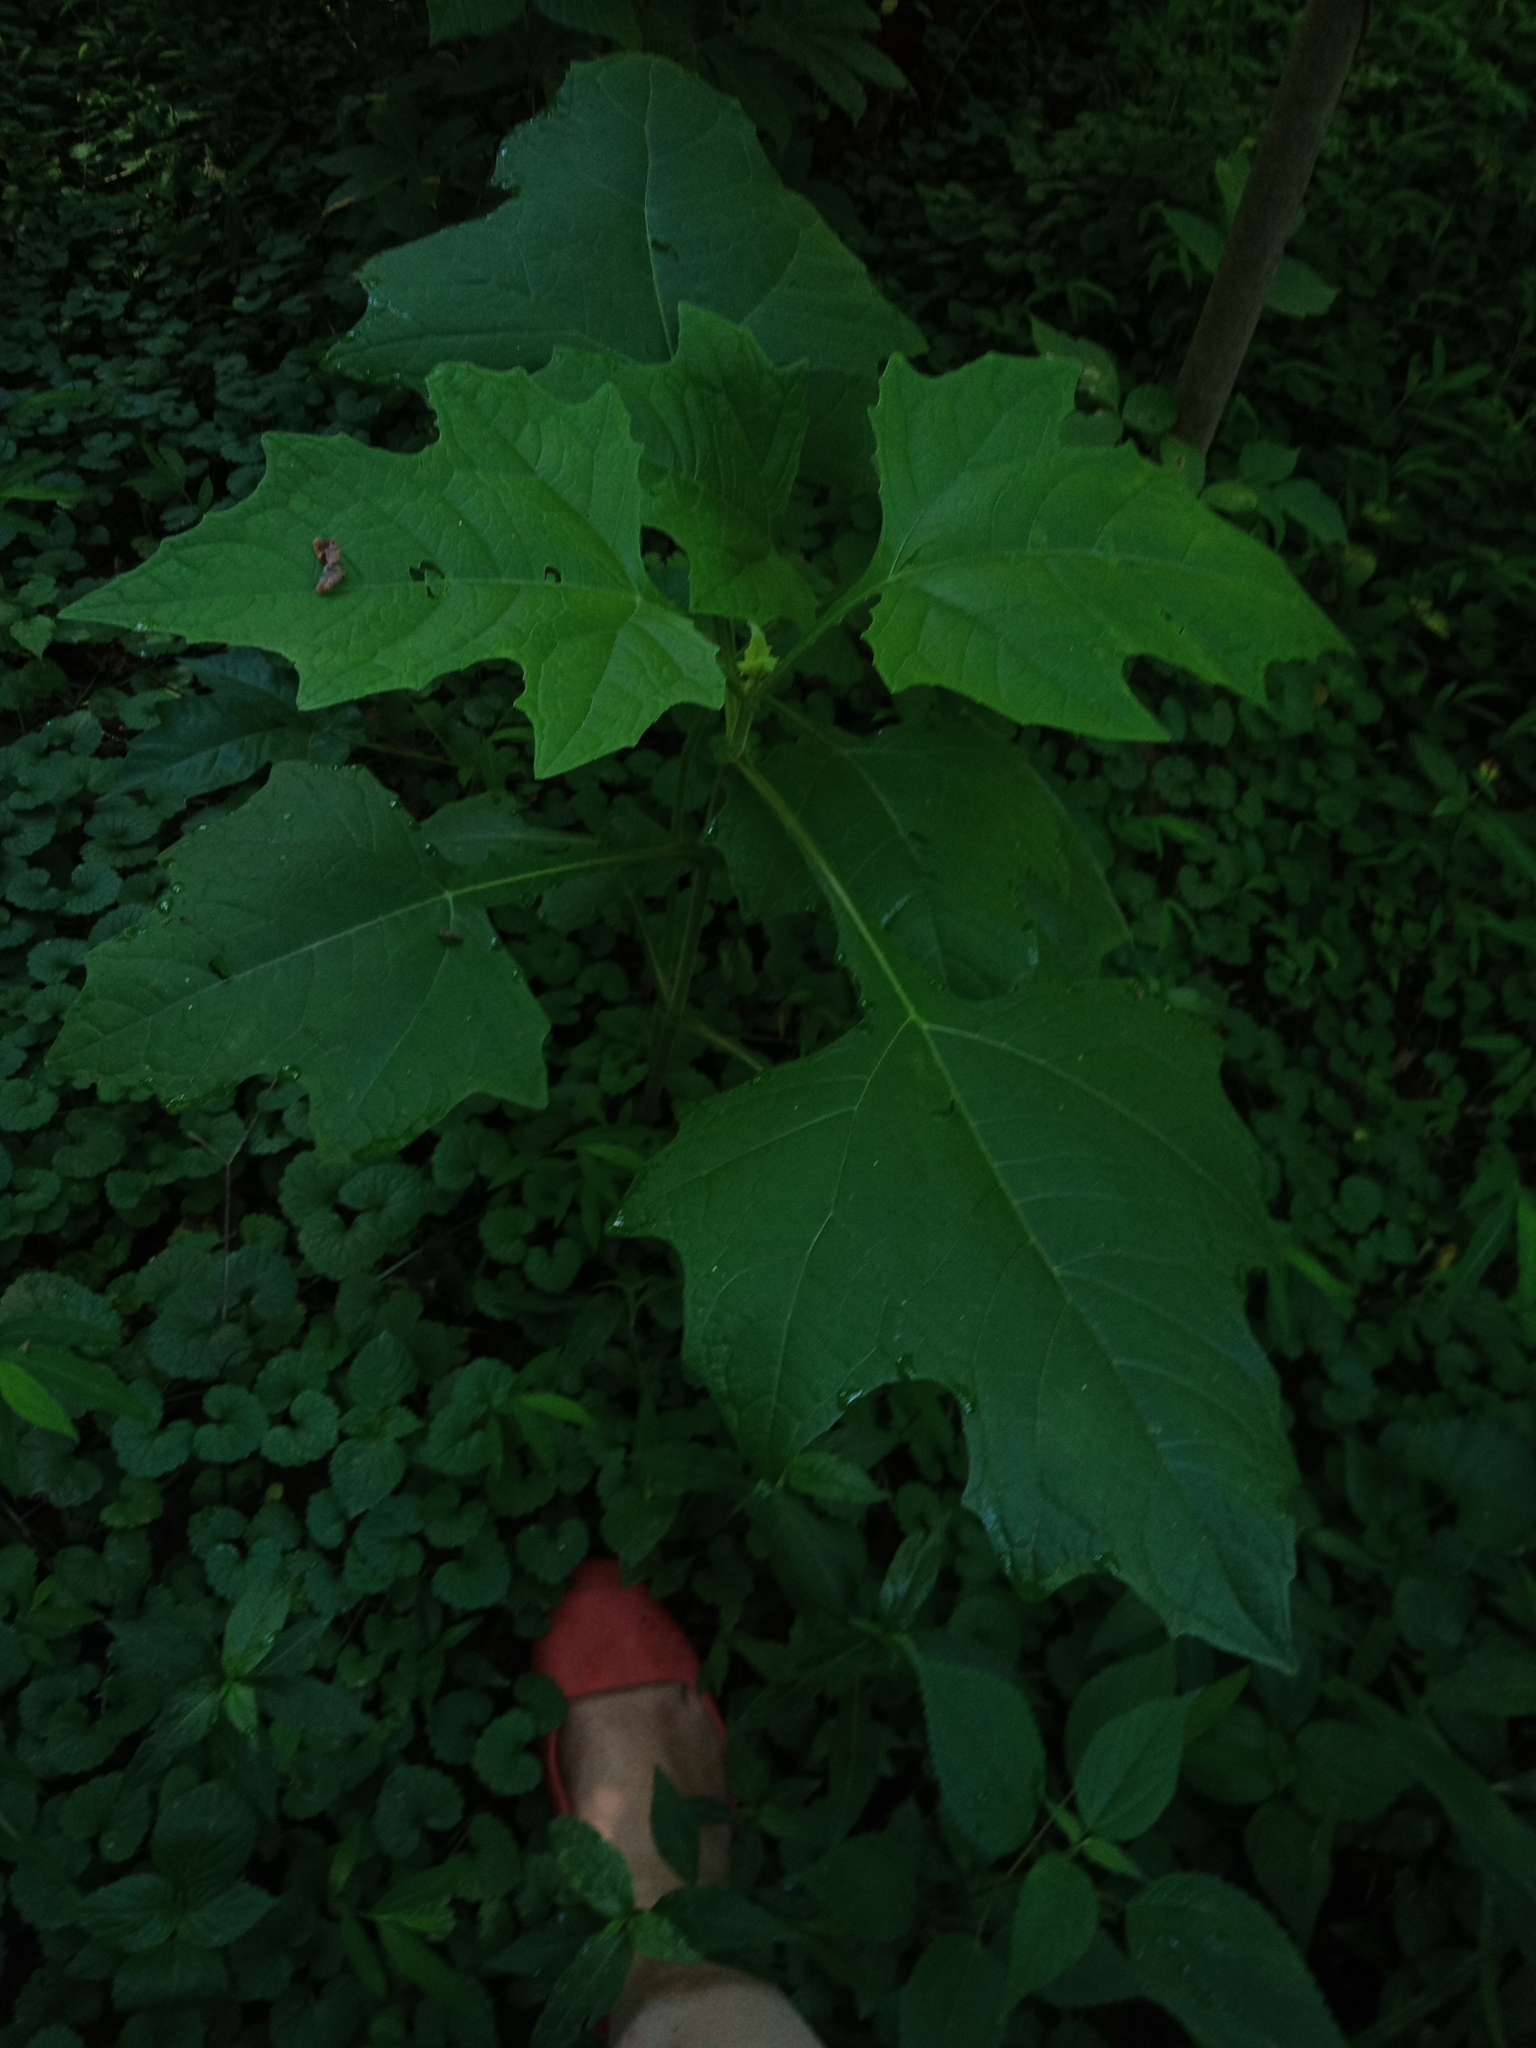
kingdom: Plantae
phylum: Tracheophyta
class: Magnoliopsida
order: Asterales
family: Asteraceae
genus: Smallanthus
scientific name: Smallanthus uvedalia
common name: Bear's-foot
